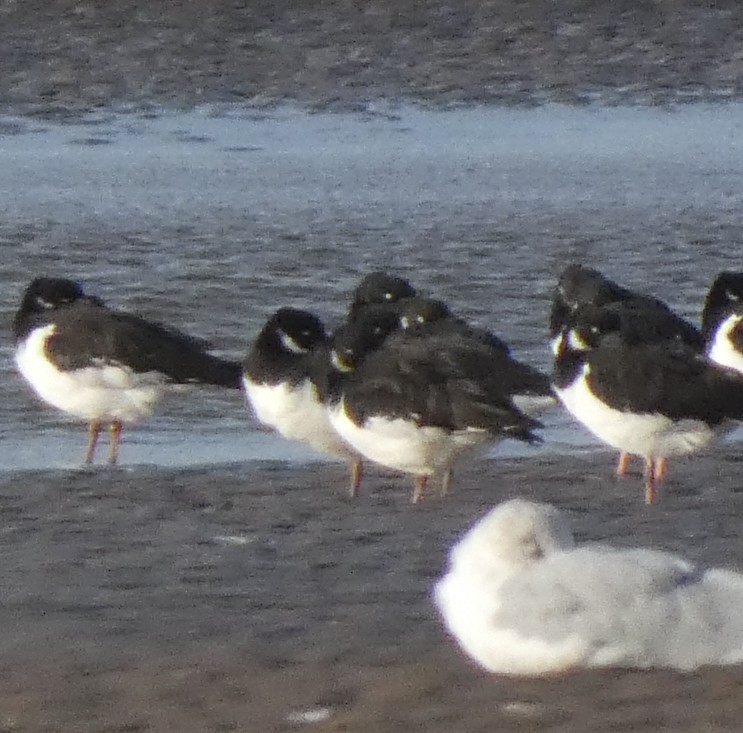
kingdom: Animalia
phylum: Chordata
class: Aves
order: Charadriiformes
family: Haematopodidae
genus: Haematopus
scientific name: Haematopus ostralegus
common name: Eurasian oystercatcher
